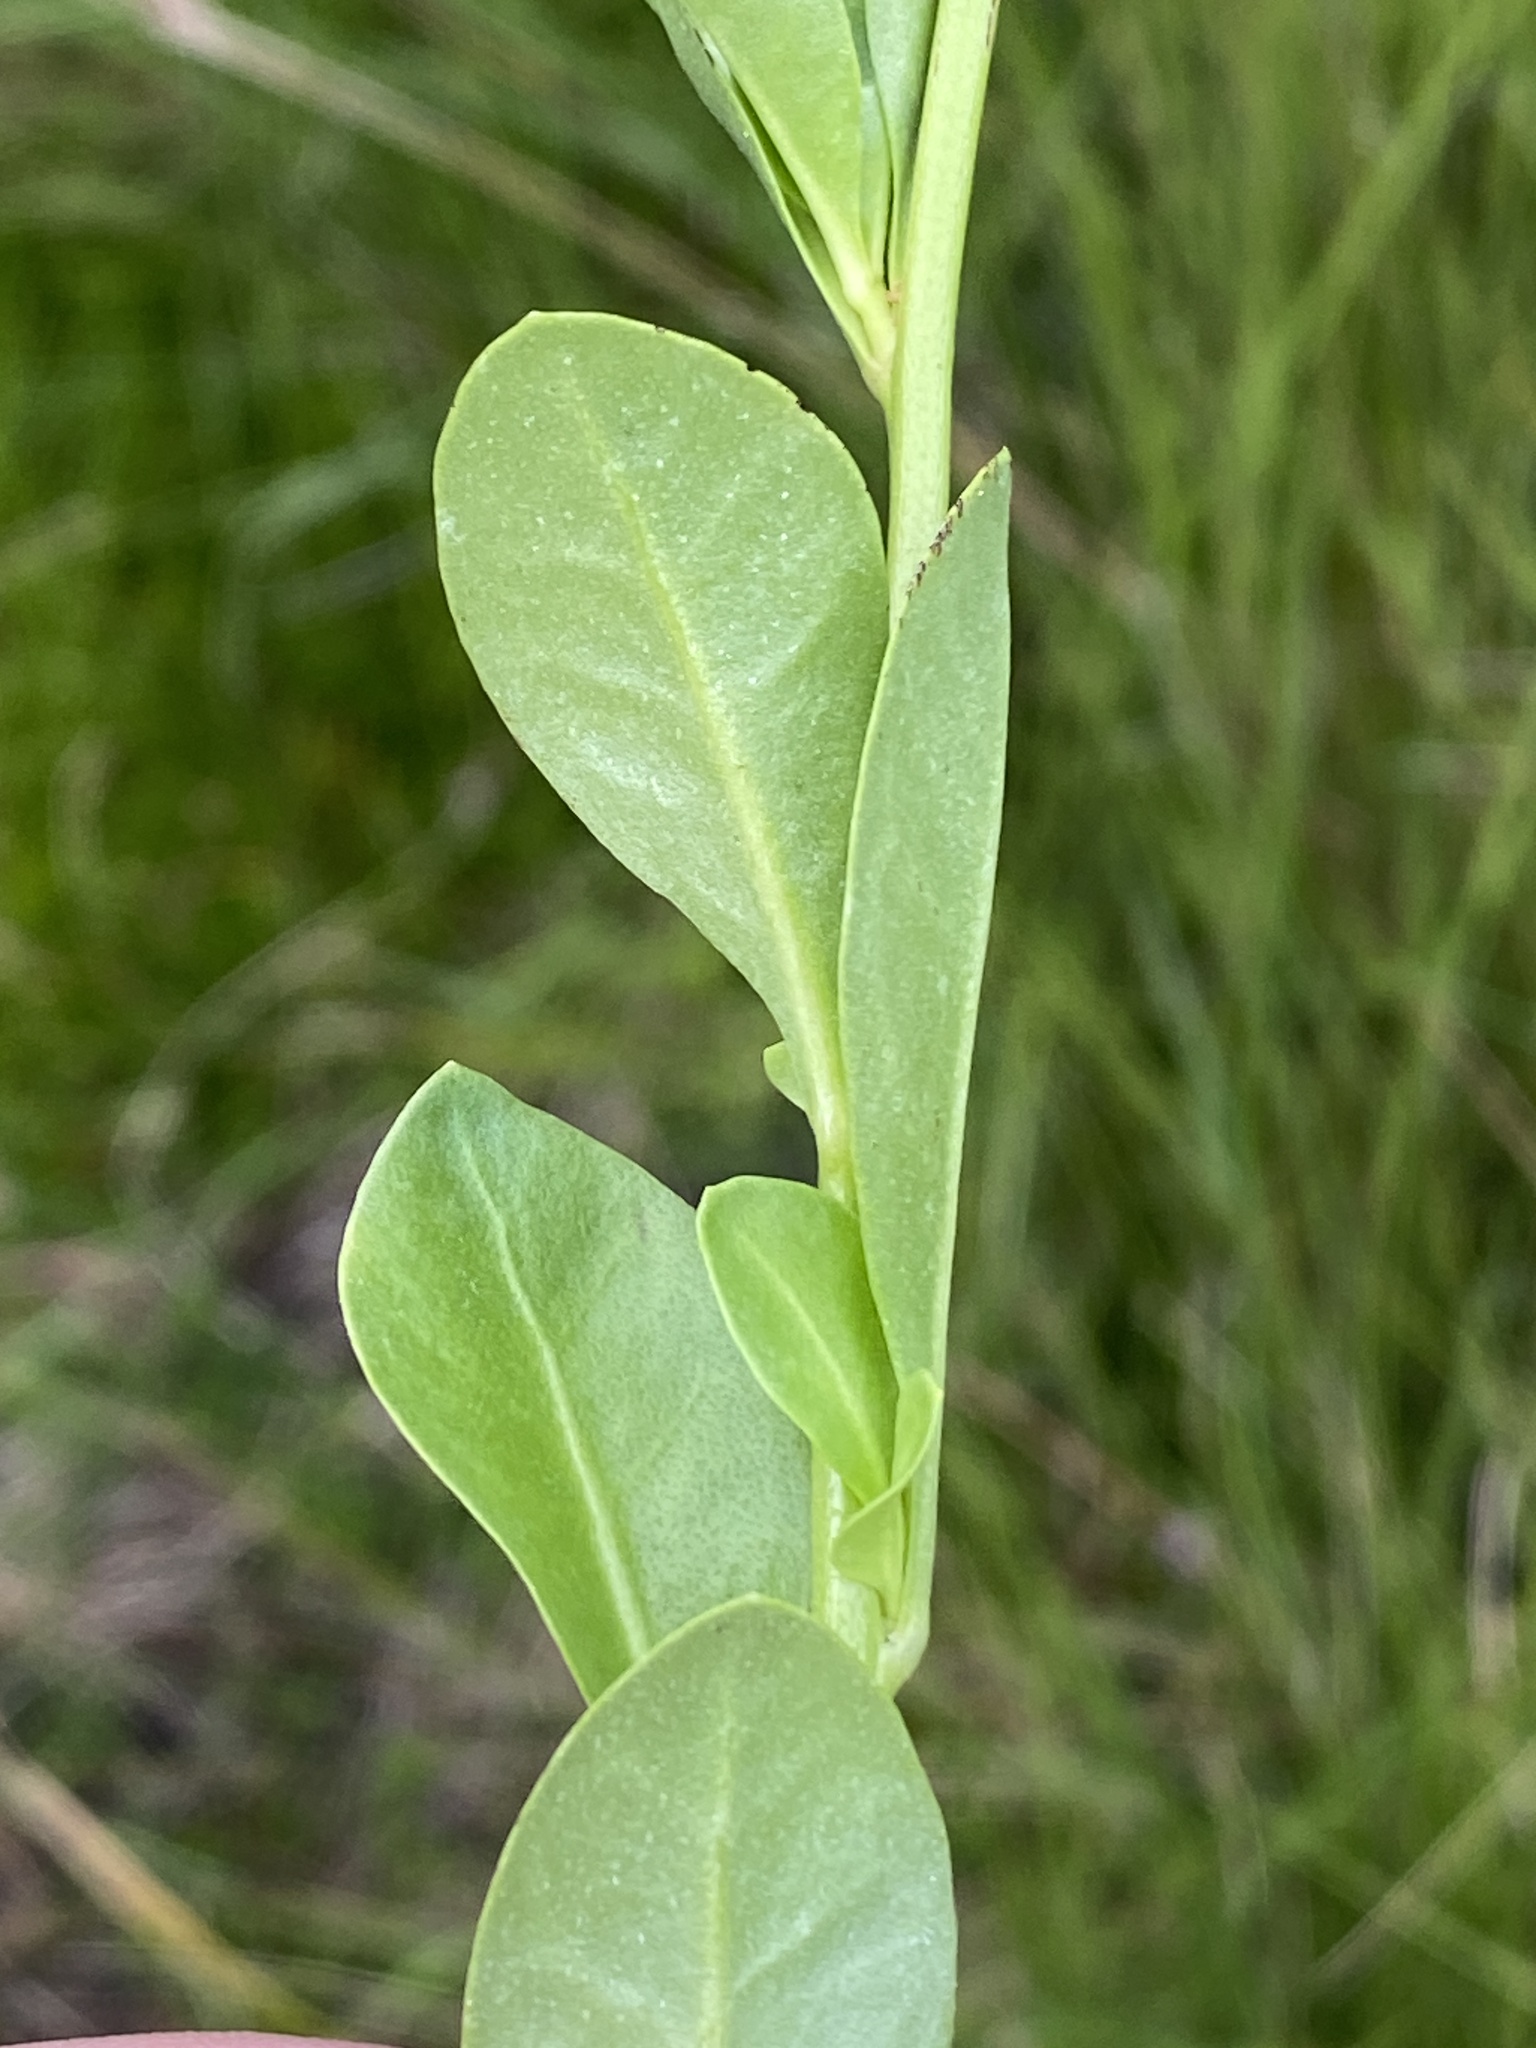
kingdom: Plantae
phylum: Tracheophyta
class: Magnoliopsida
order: Ericales
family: Primulaceae
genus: Samolus
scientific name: Samolus valerandi
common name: Brookweed
